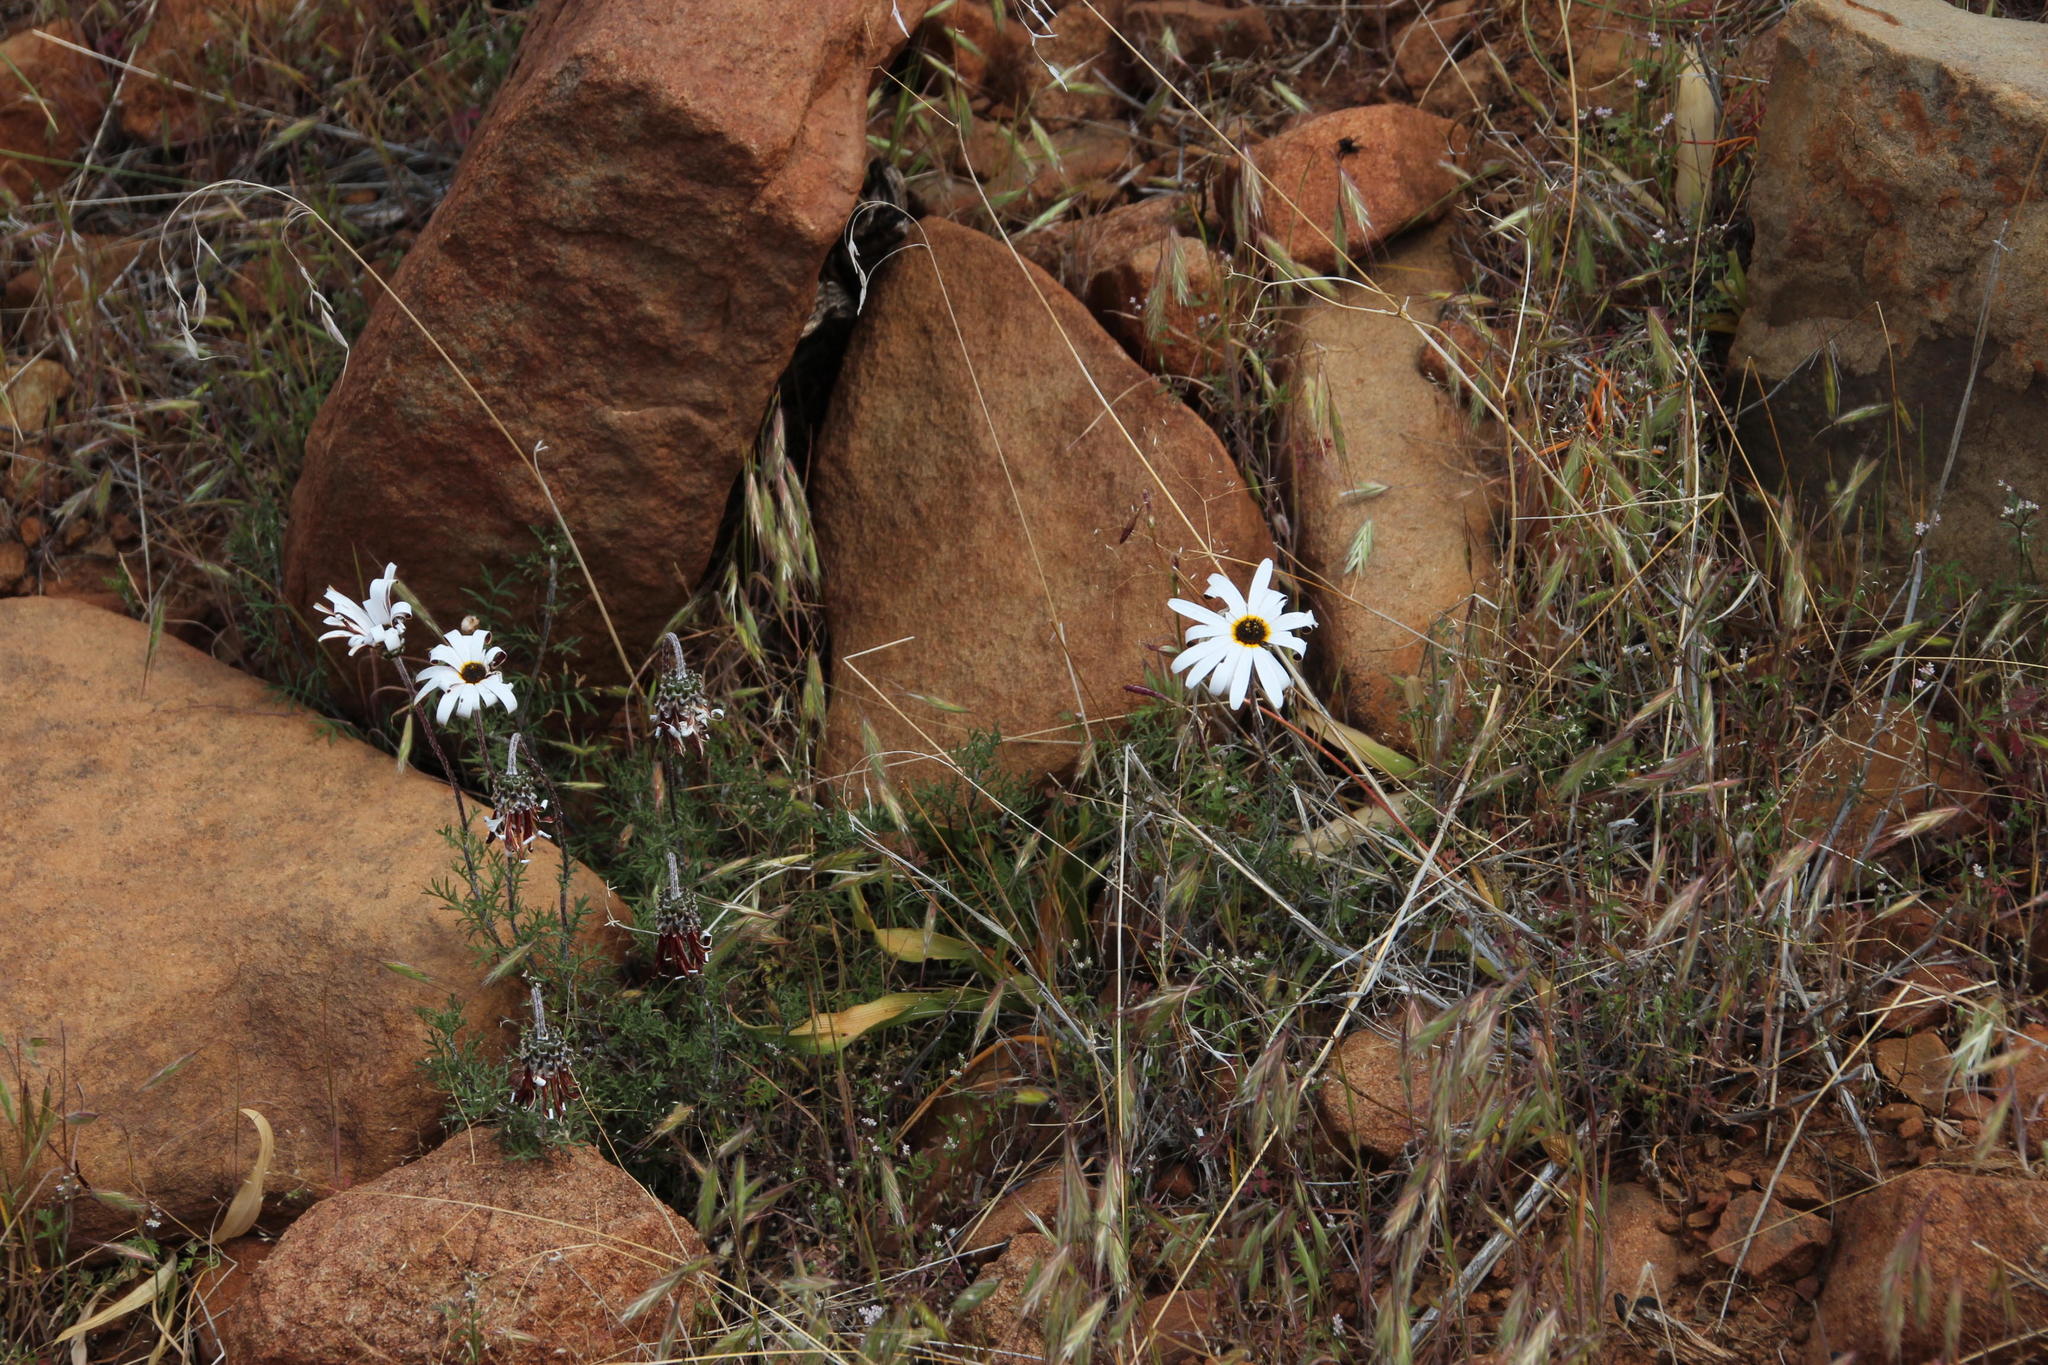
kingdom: Plantae
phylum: Tracheophyta
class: Magnoliopsida
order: Asterales
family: Asteraceae
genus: Ursinia
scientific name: Ursinia pilifera
